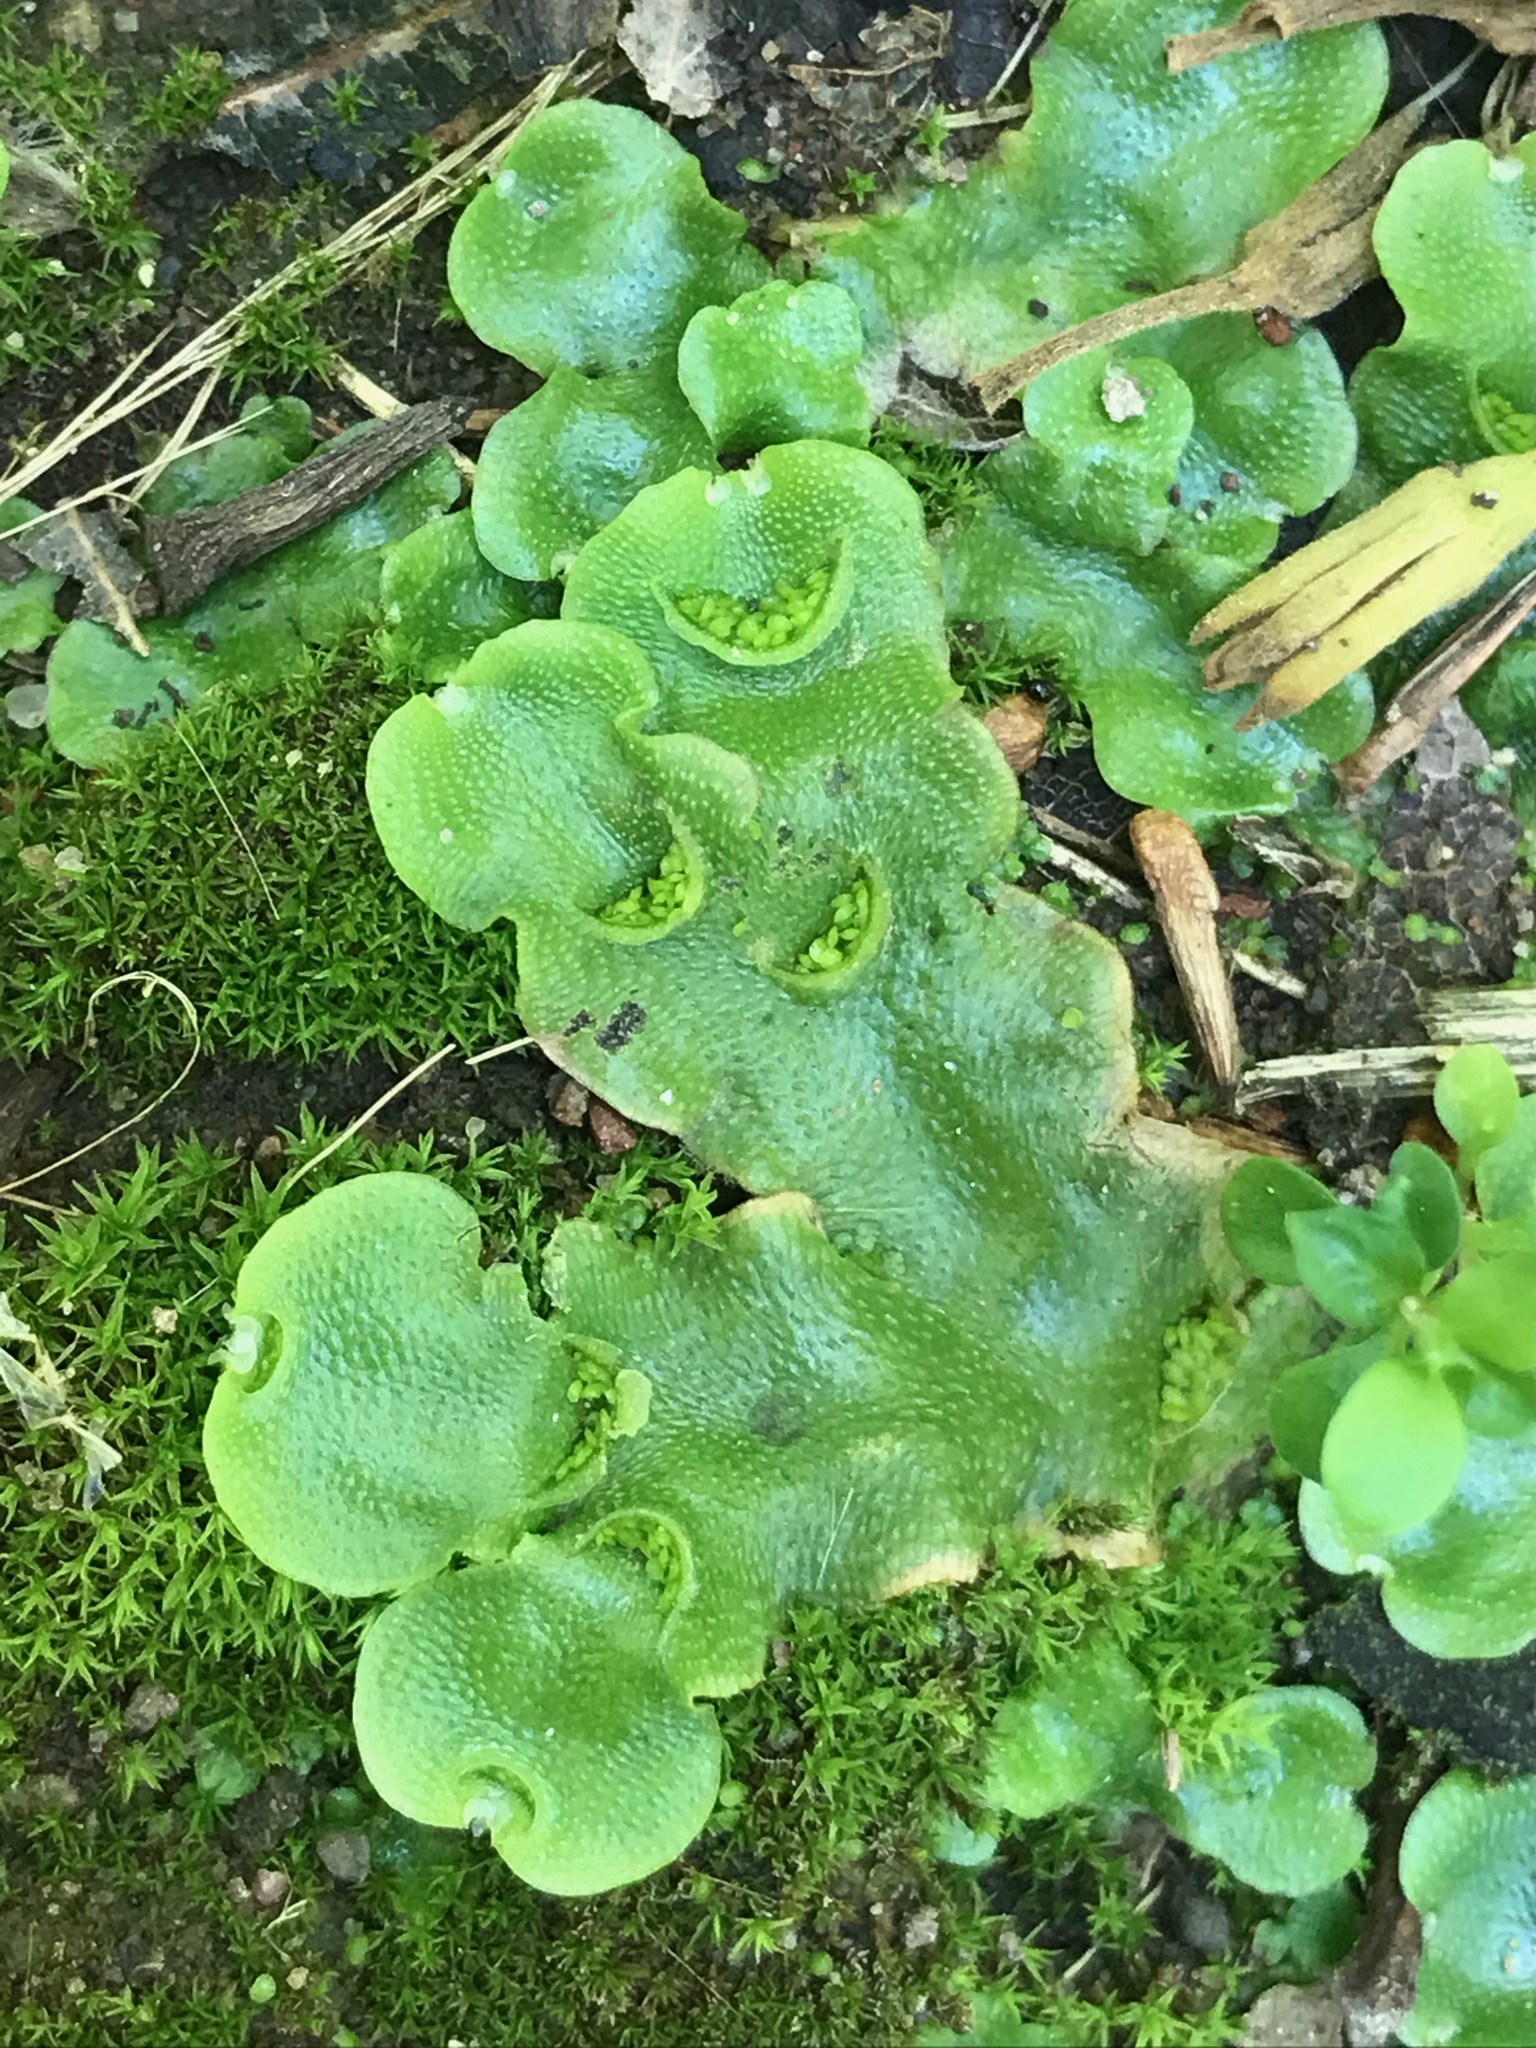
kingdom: Plantae
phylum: Marchantiophyta
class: Marchantiopsida
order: Lunulariales
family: Lunulariaceae
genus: Lunularia
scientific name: Lunularia cruciata
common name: Crescent-cup liverwort
